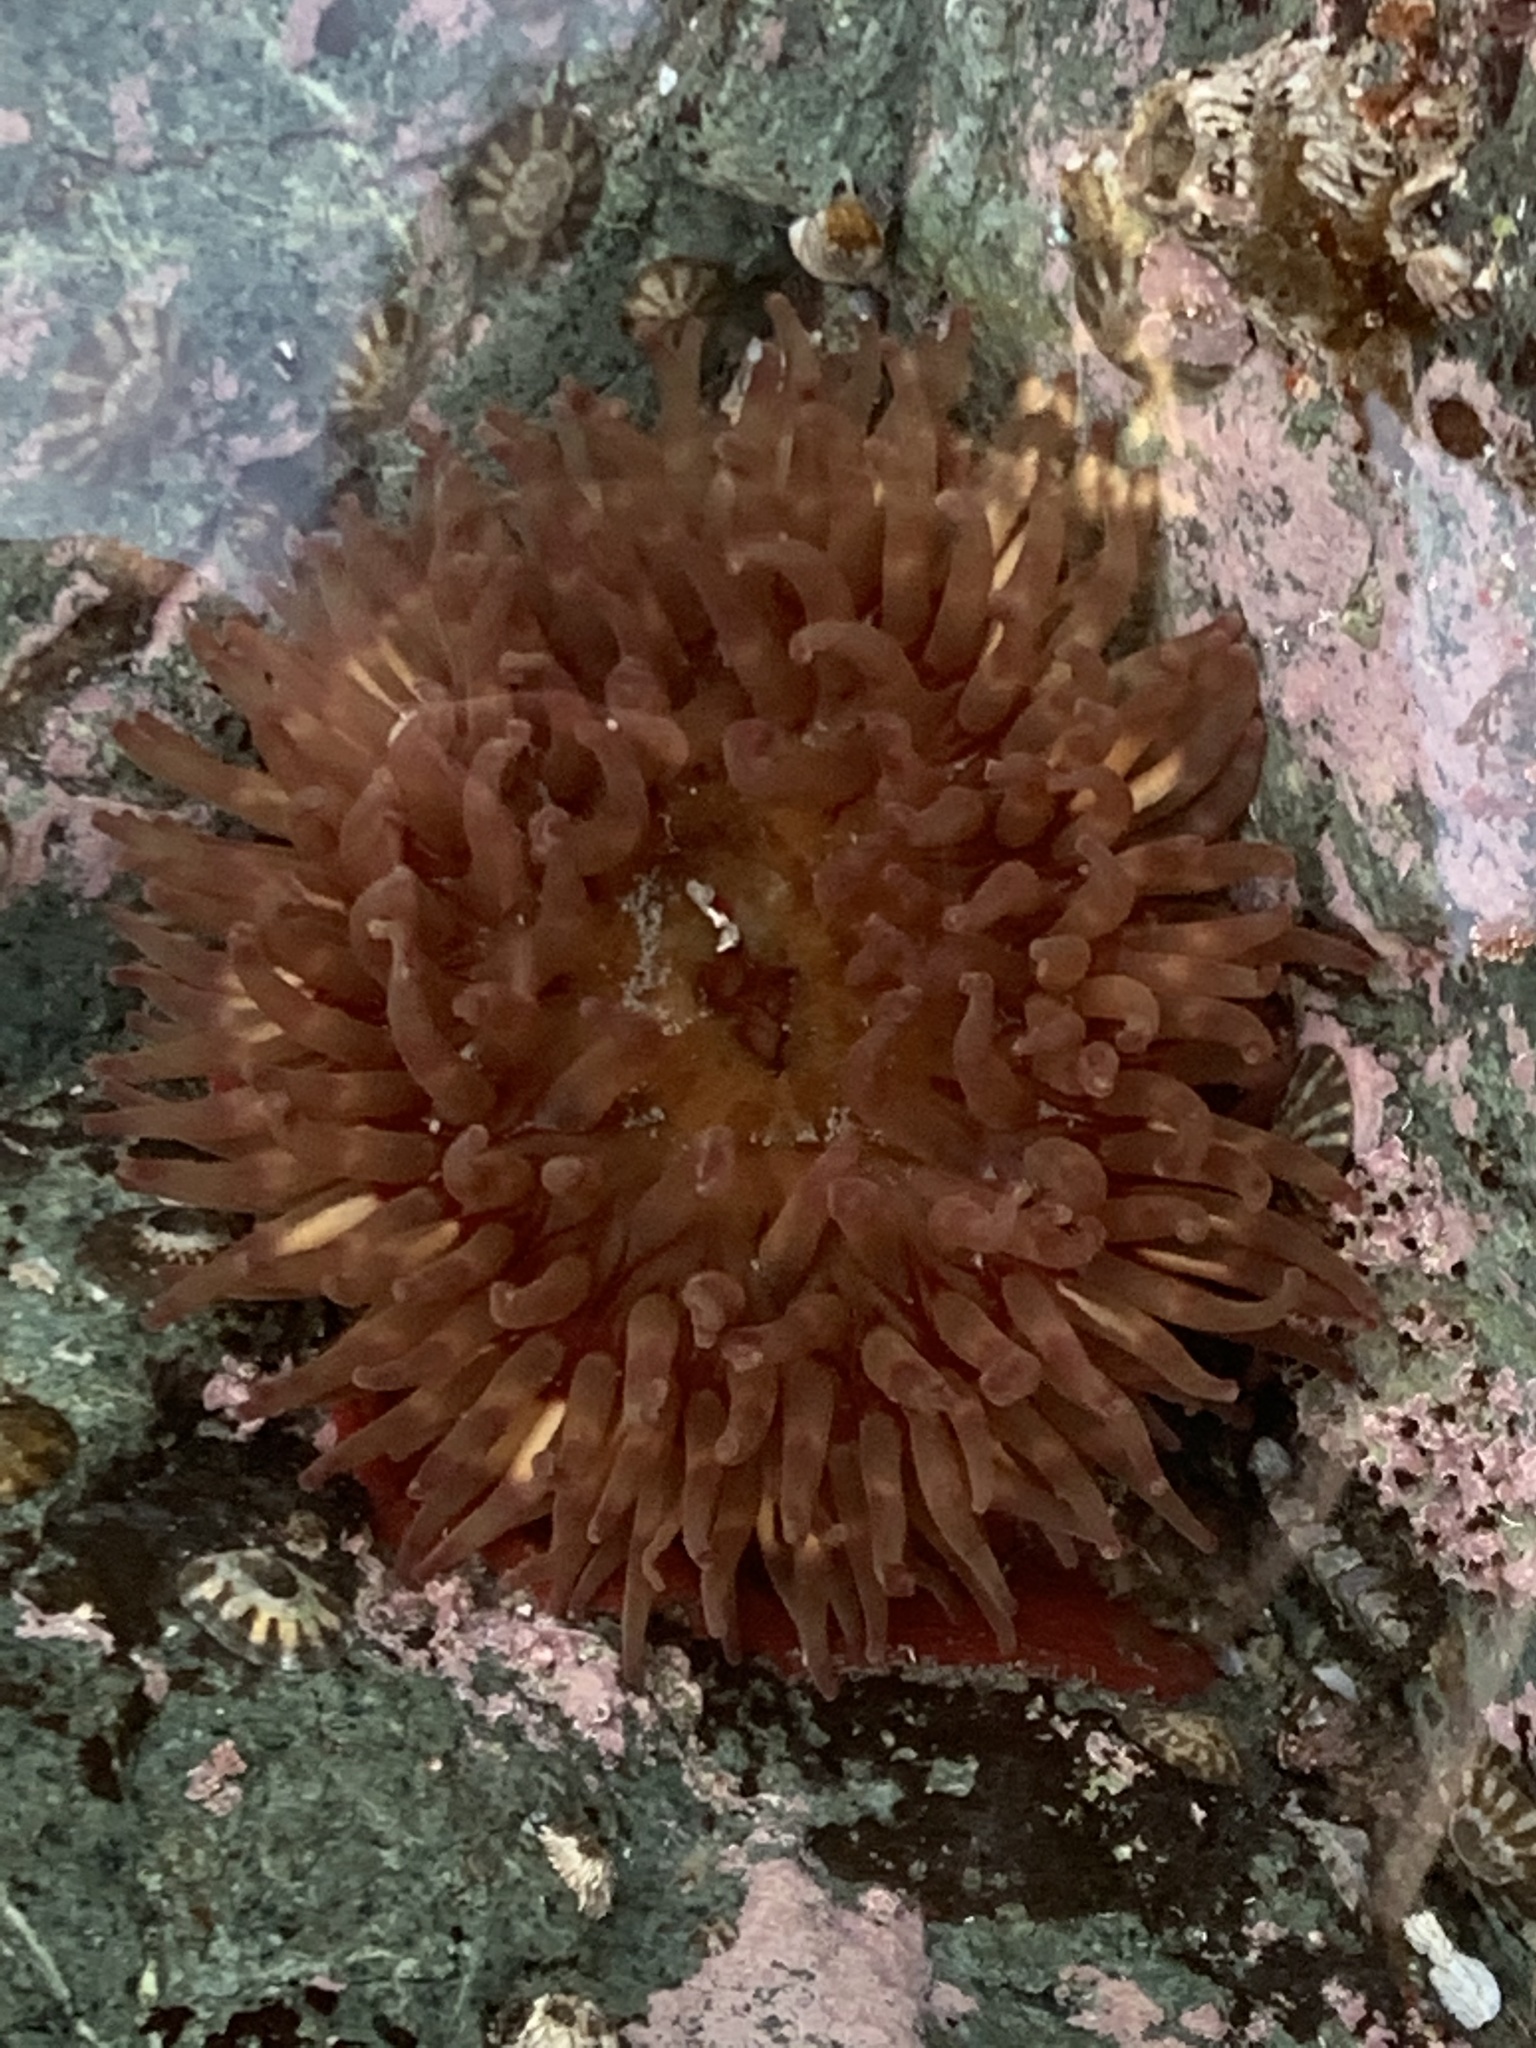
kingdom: Animalia
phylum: Cnidaria
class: Anthozoa
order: Actiniaria
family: Actiniidae
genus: Urticina
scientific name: Urticina grebelnyi
